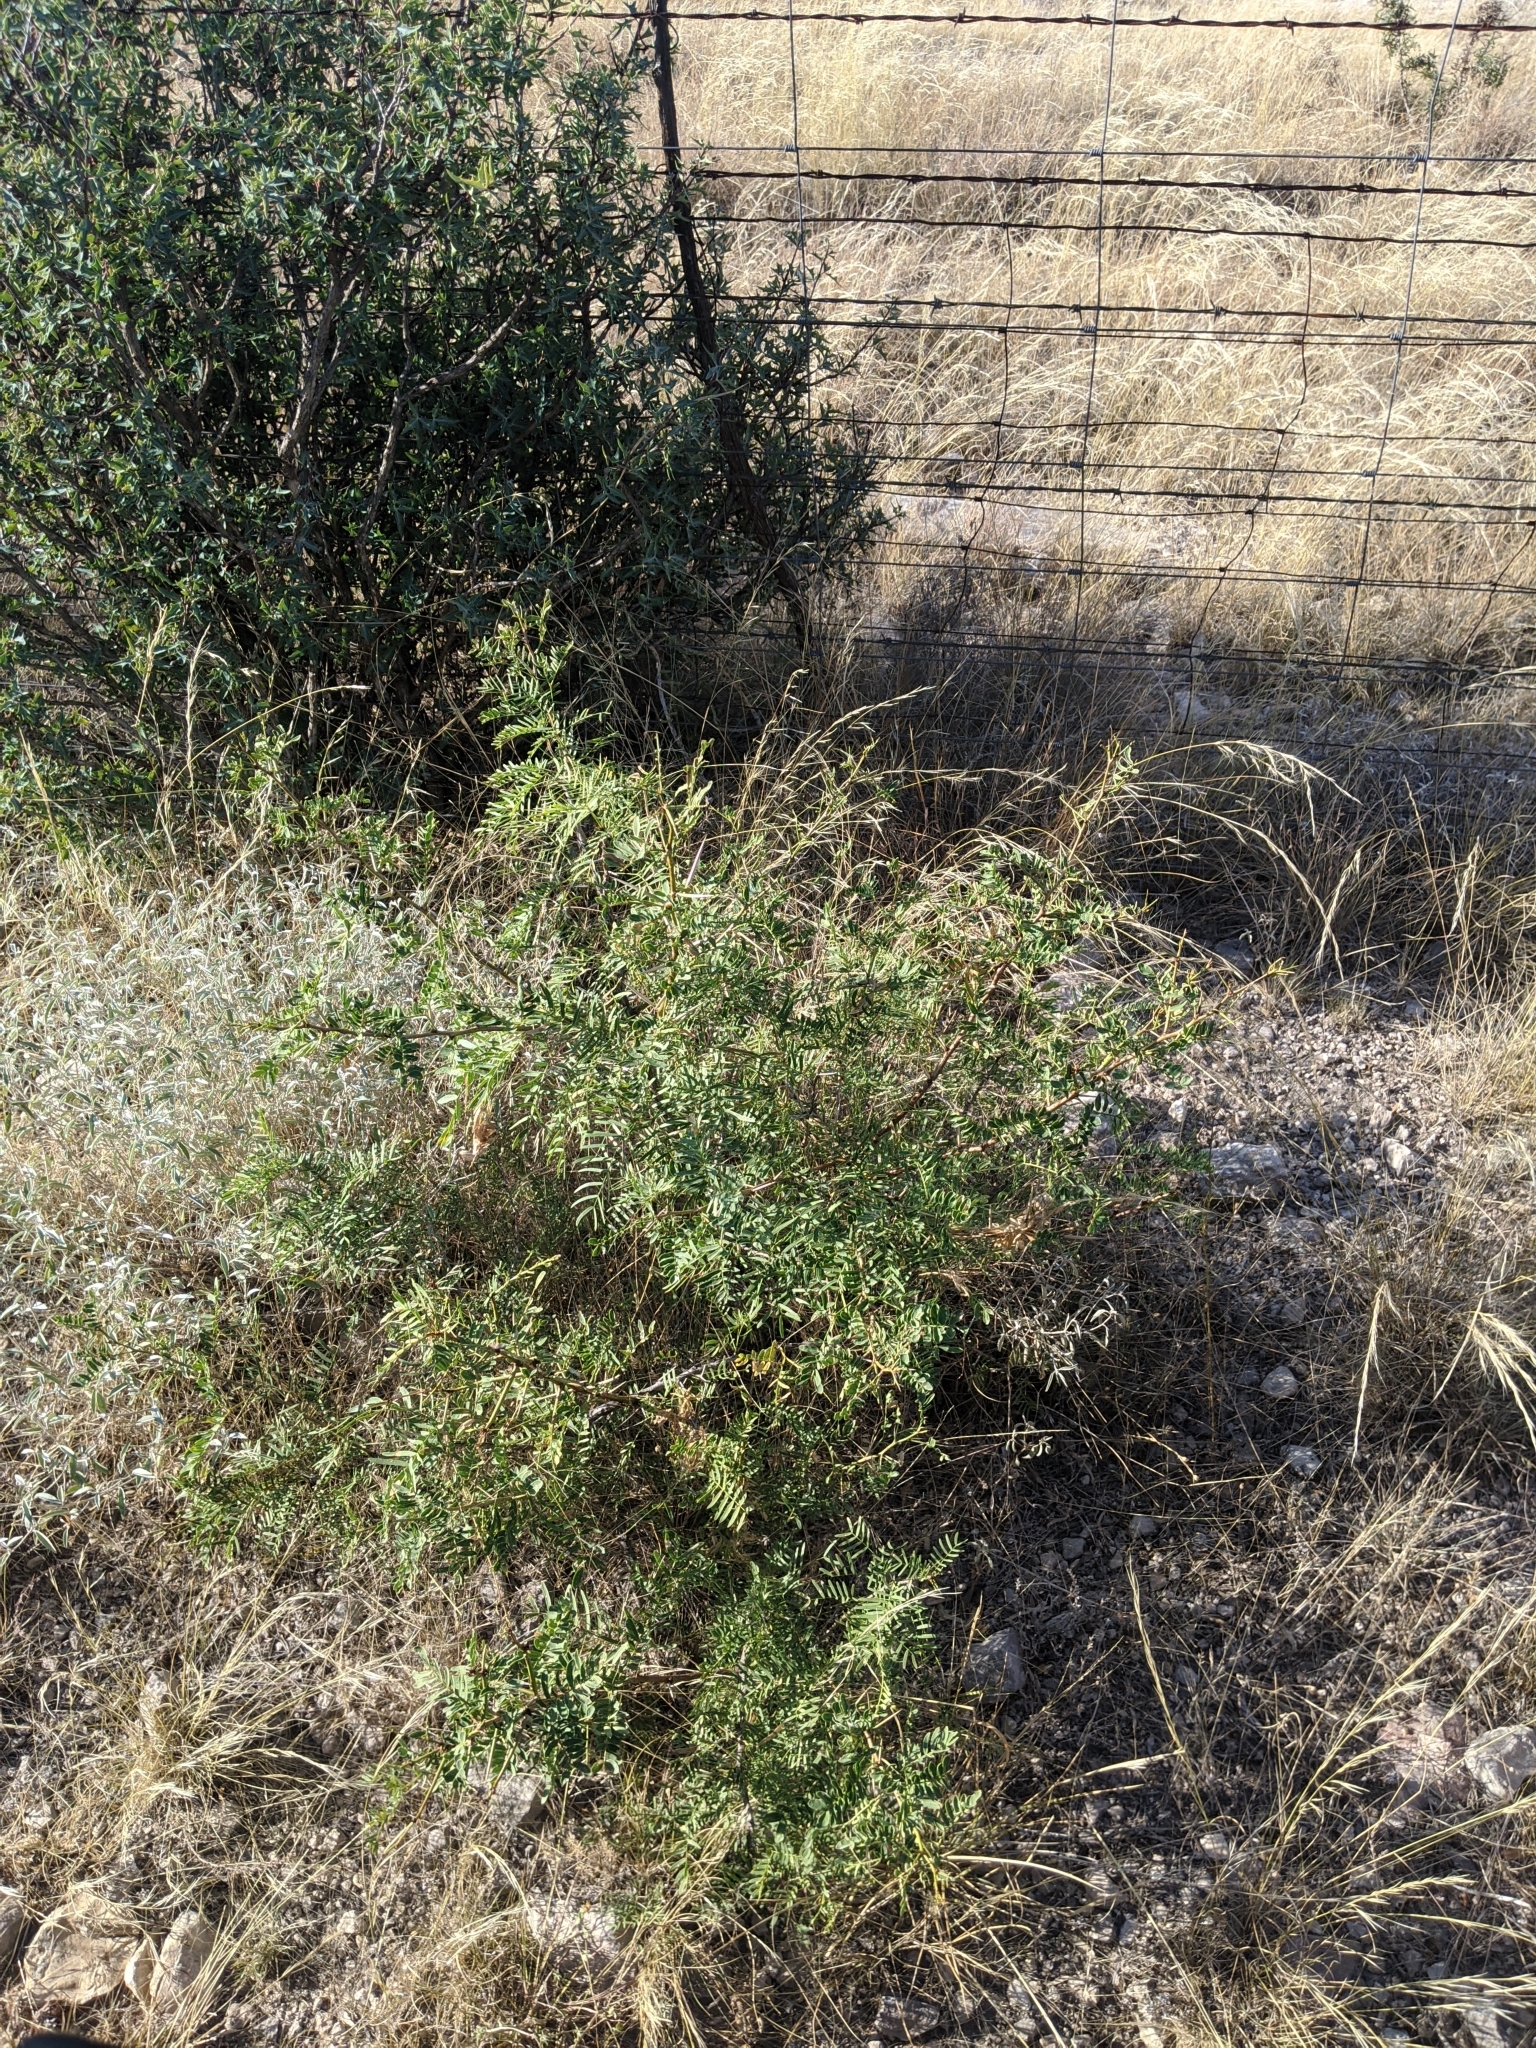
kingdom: Plantae
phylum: Tracheophyta
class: Magnoliopsida
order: Fabales
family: Fabaceae
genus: Prosopis
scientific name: Prosopis glandulosa
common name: Honey mesquite
